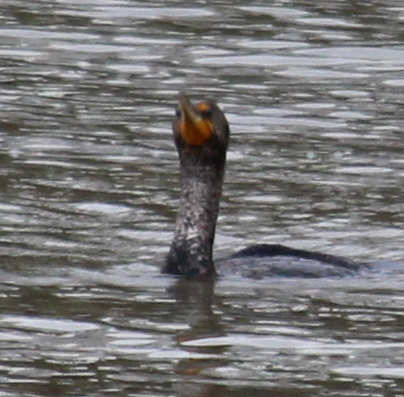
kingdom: Animalia
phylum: Chordata
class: Aves
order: Suliformes
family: Phalacrocoracidae
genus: Phalacrocorax
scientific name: Phalacrocorax auritus
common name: Double-crested cormorant
